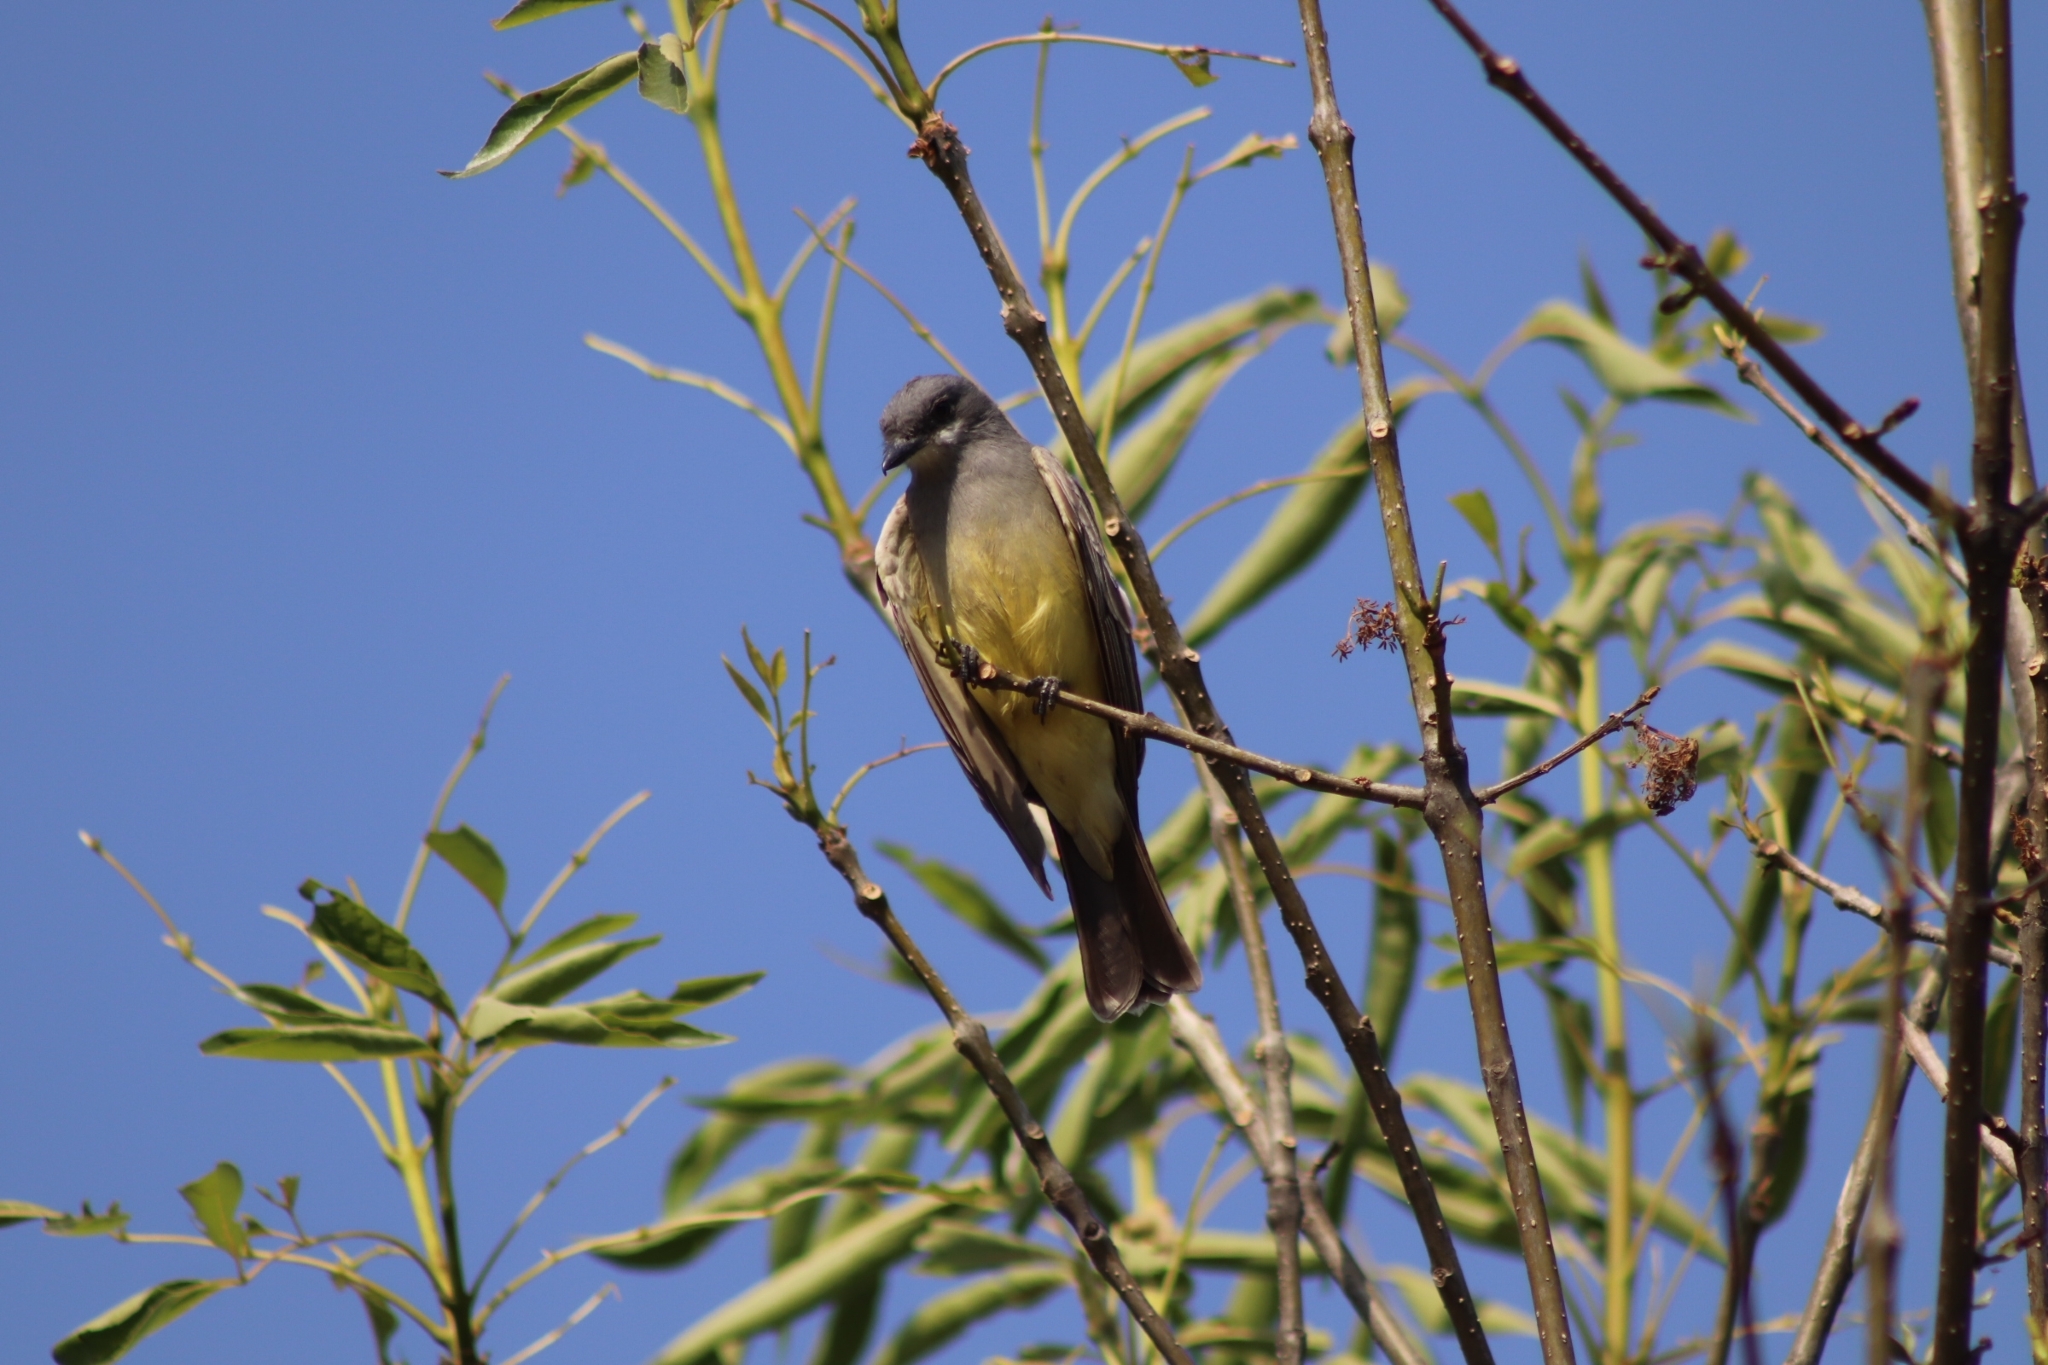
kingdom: Animalia
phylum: Chordata
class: Aves
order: Passeriformes
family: Tyrannidae
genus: Tyrannus
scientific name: Tyrannus vociferans
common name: Cassin's kingbird
